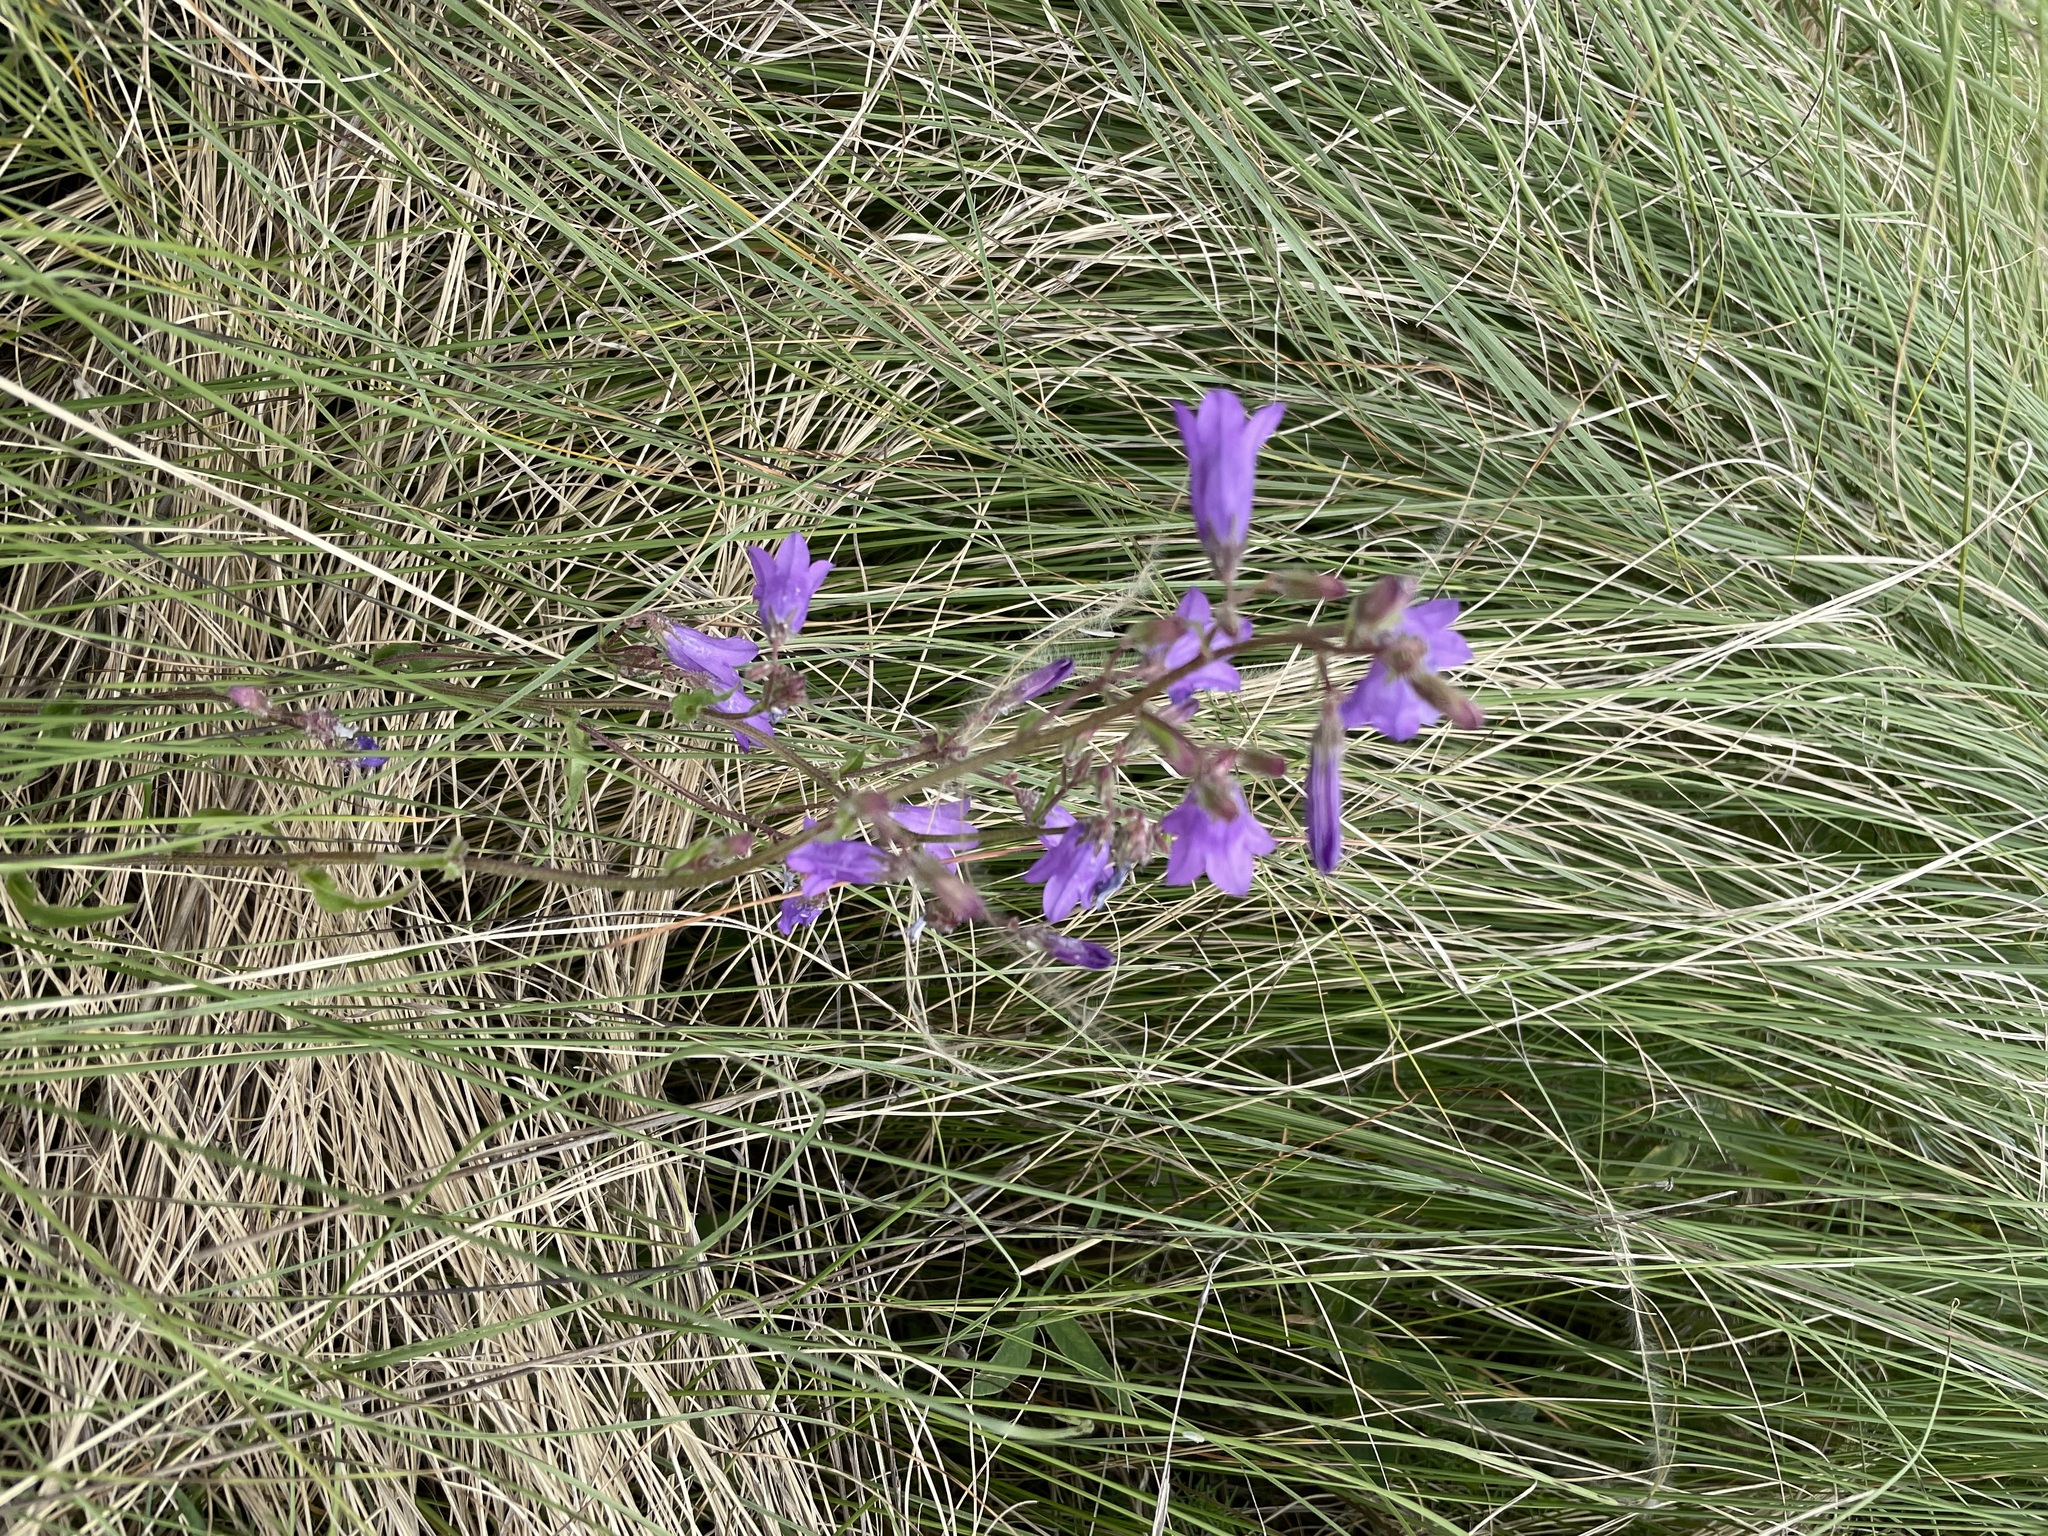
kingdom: Plantae
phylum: Tracheophyta
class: Magnoliopsida
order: Asterales
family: Campanulaceae
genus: Campanula
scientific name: Campanula sibirica
